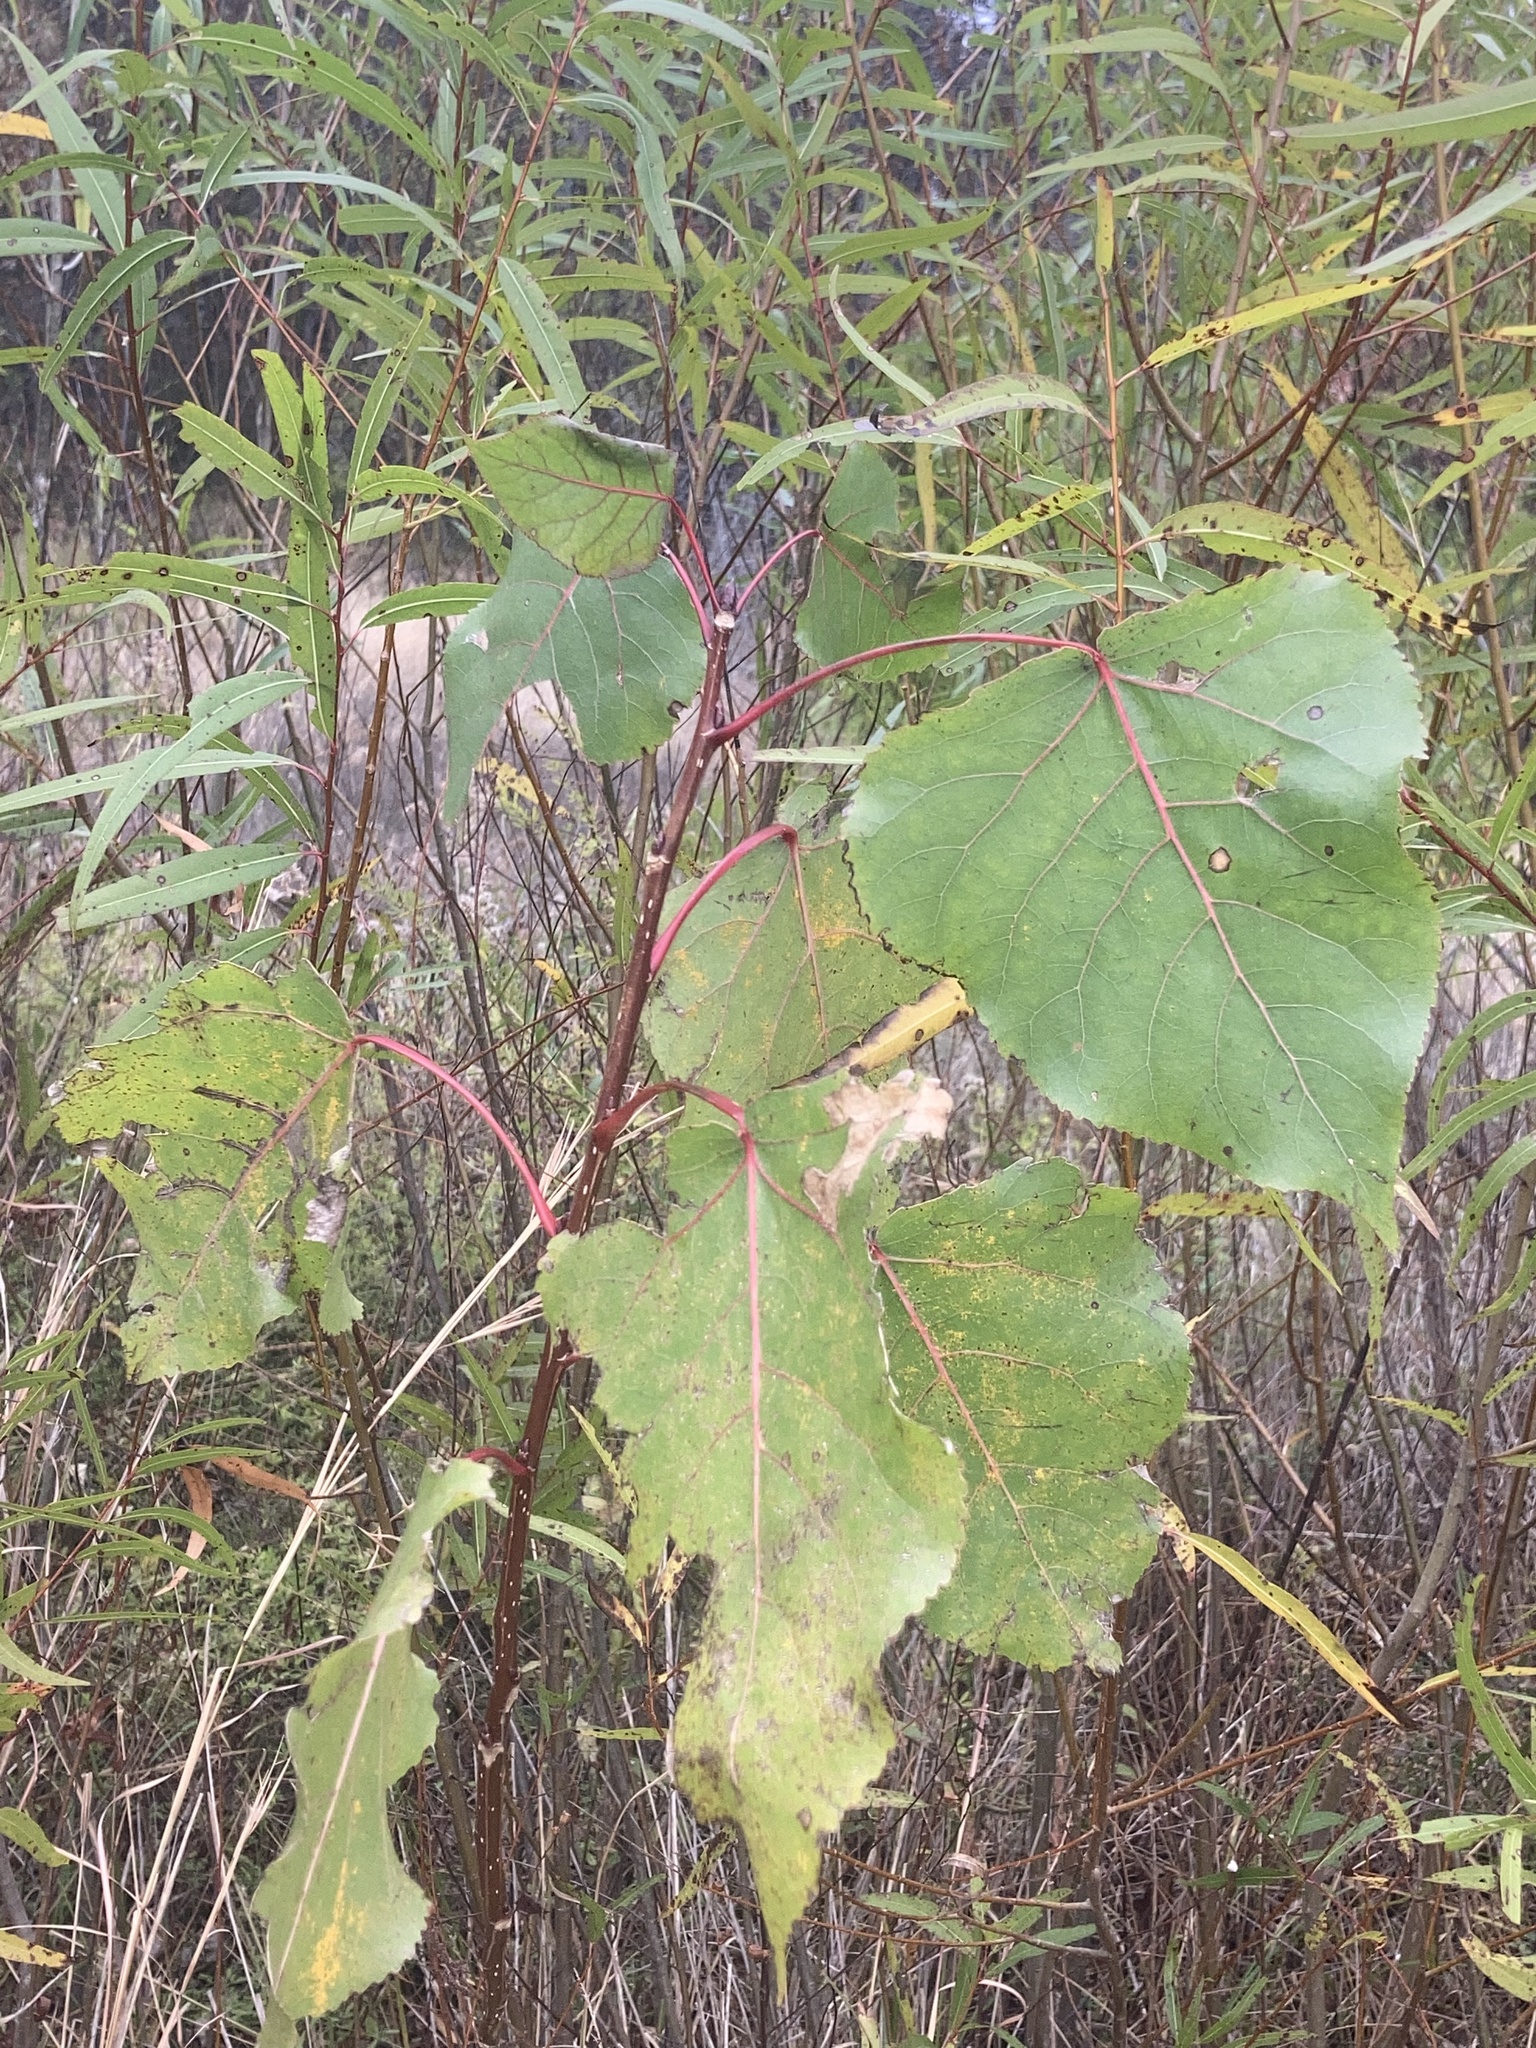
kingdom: Plantae
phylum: Tracheophyta
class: Magnoliopsida
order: Malpighiales
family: Salicaceae
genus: Populus
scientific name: Populus deltoides
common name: Eastern cottonwood
